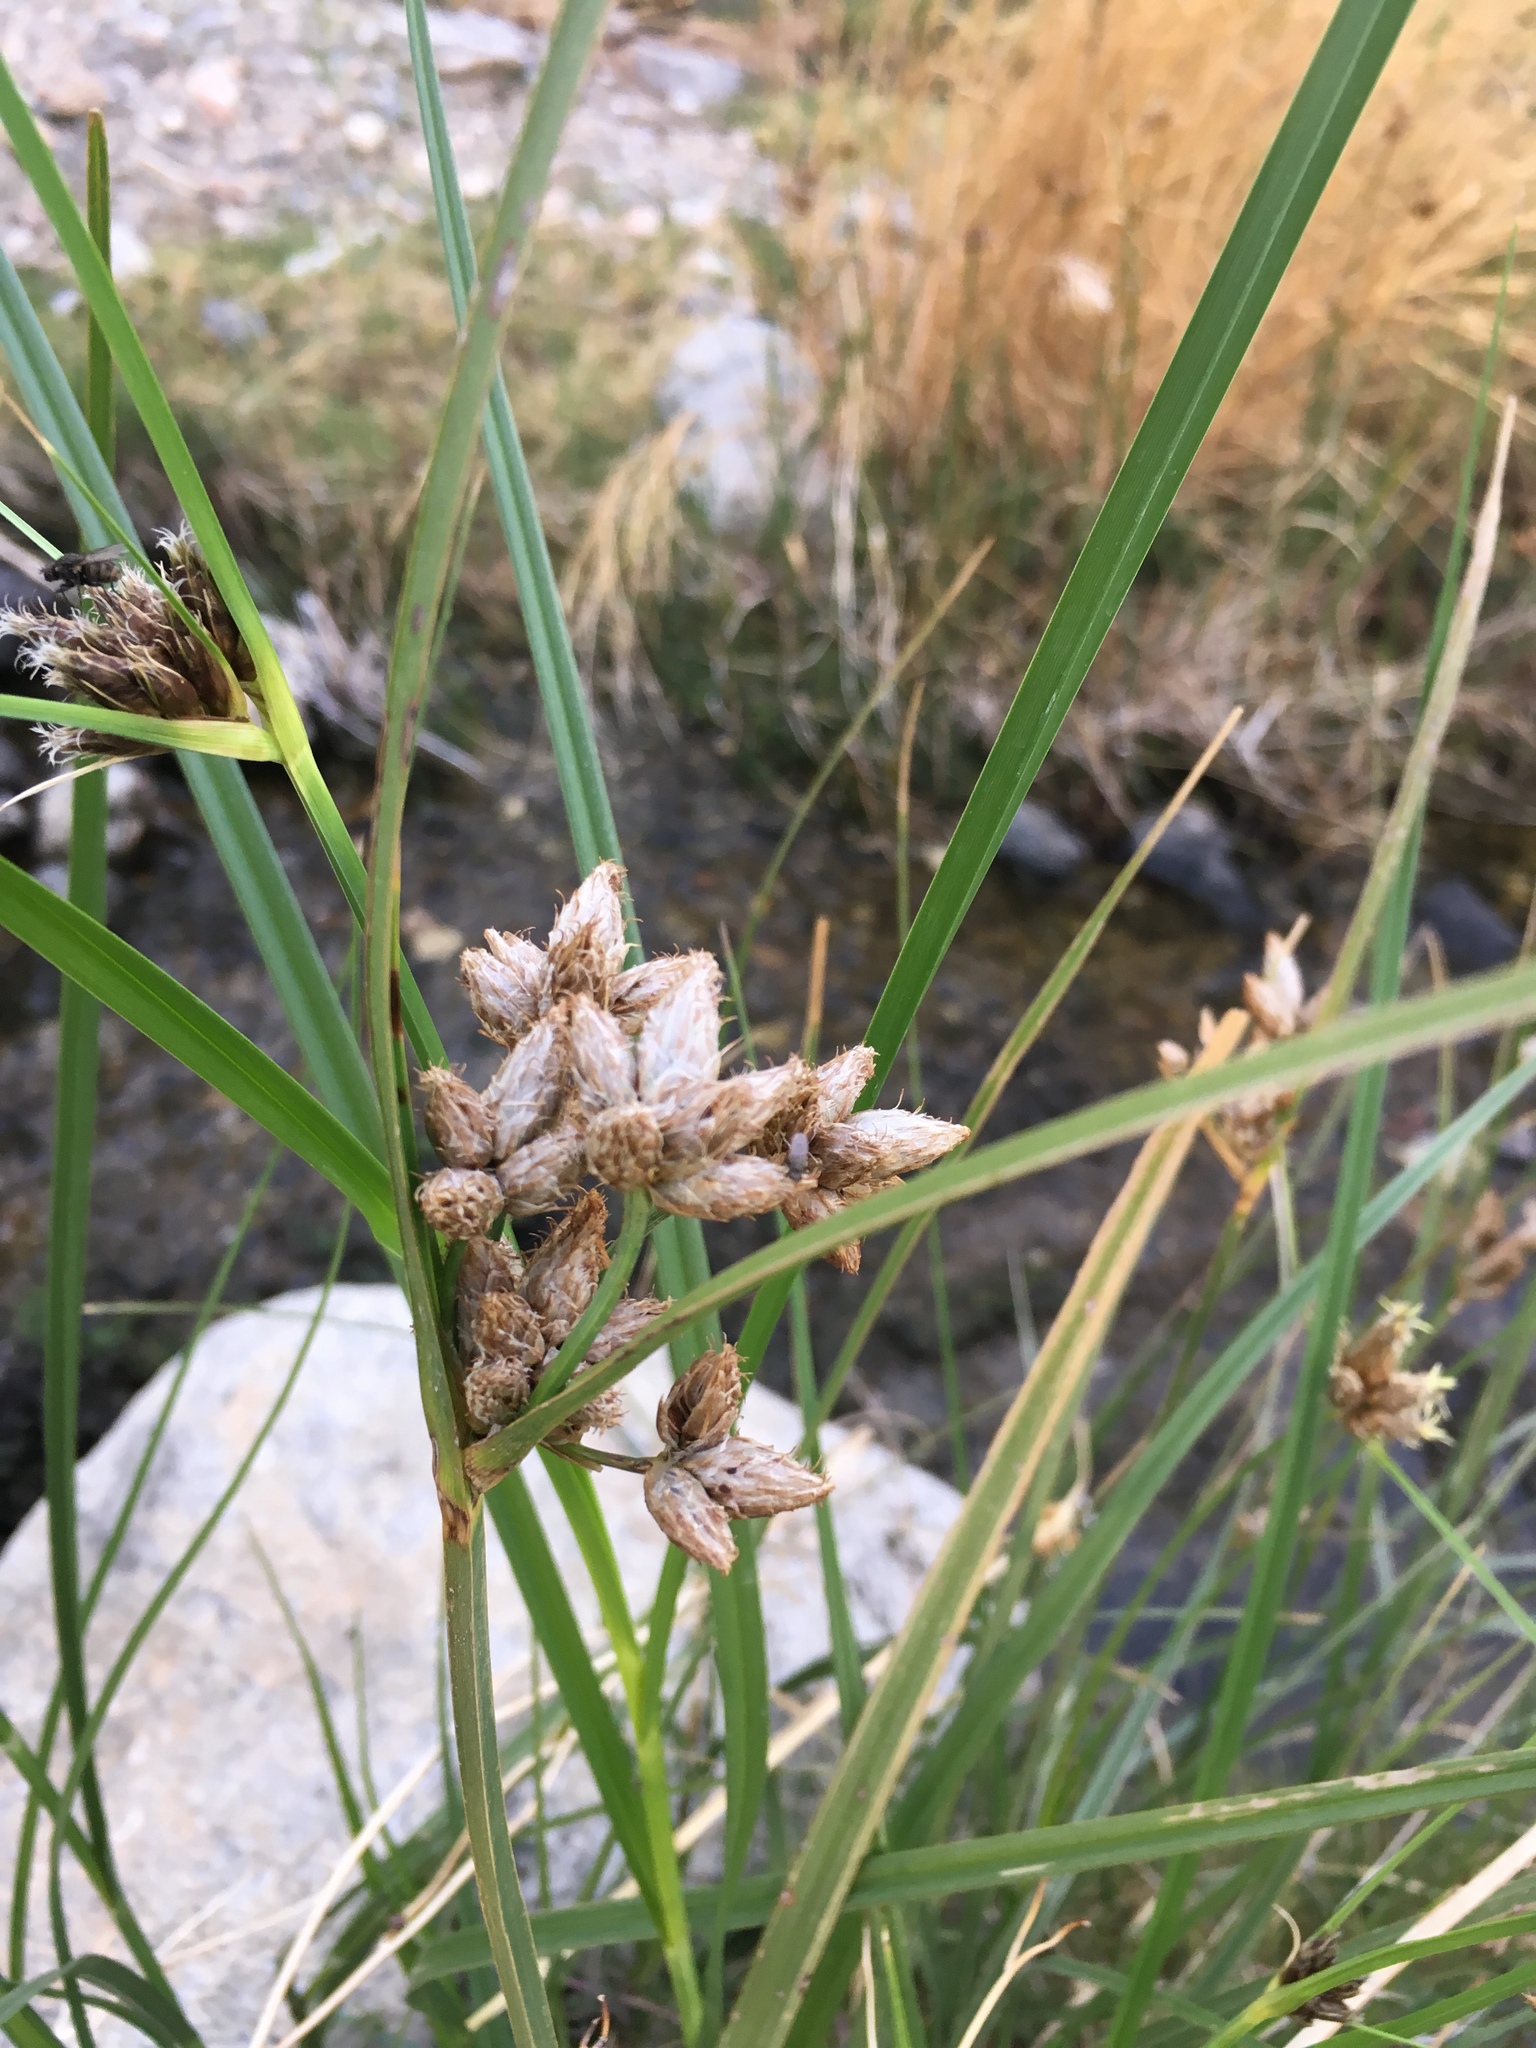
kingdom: Plantae
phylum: Tracheophyta
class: Liliopsida
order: Poales
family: Cyperaceae
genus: Bolboschoenus
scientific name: Bolboschoenus maritimus
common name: Sea club-rush
